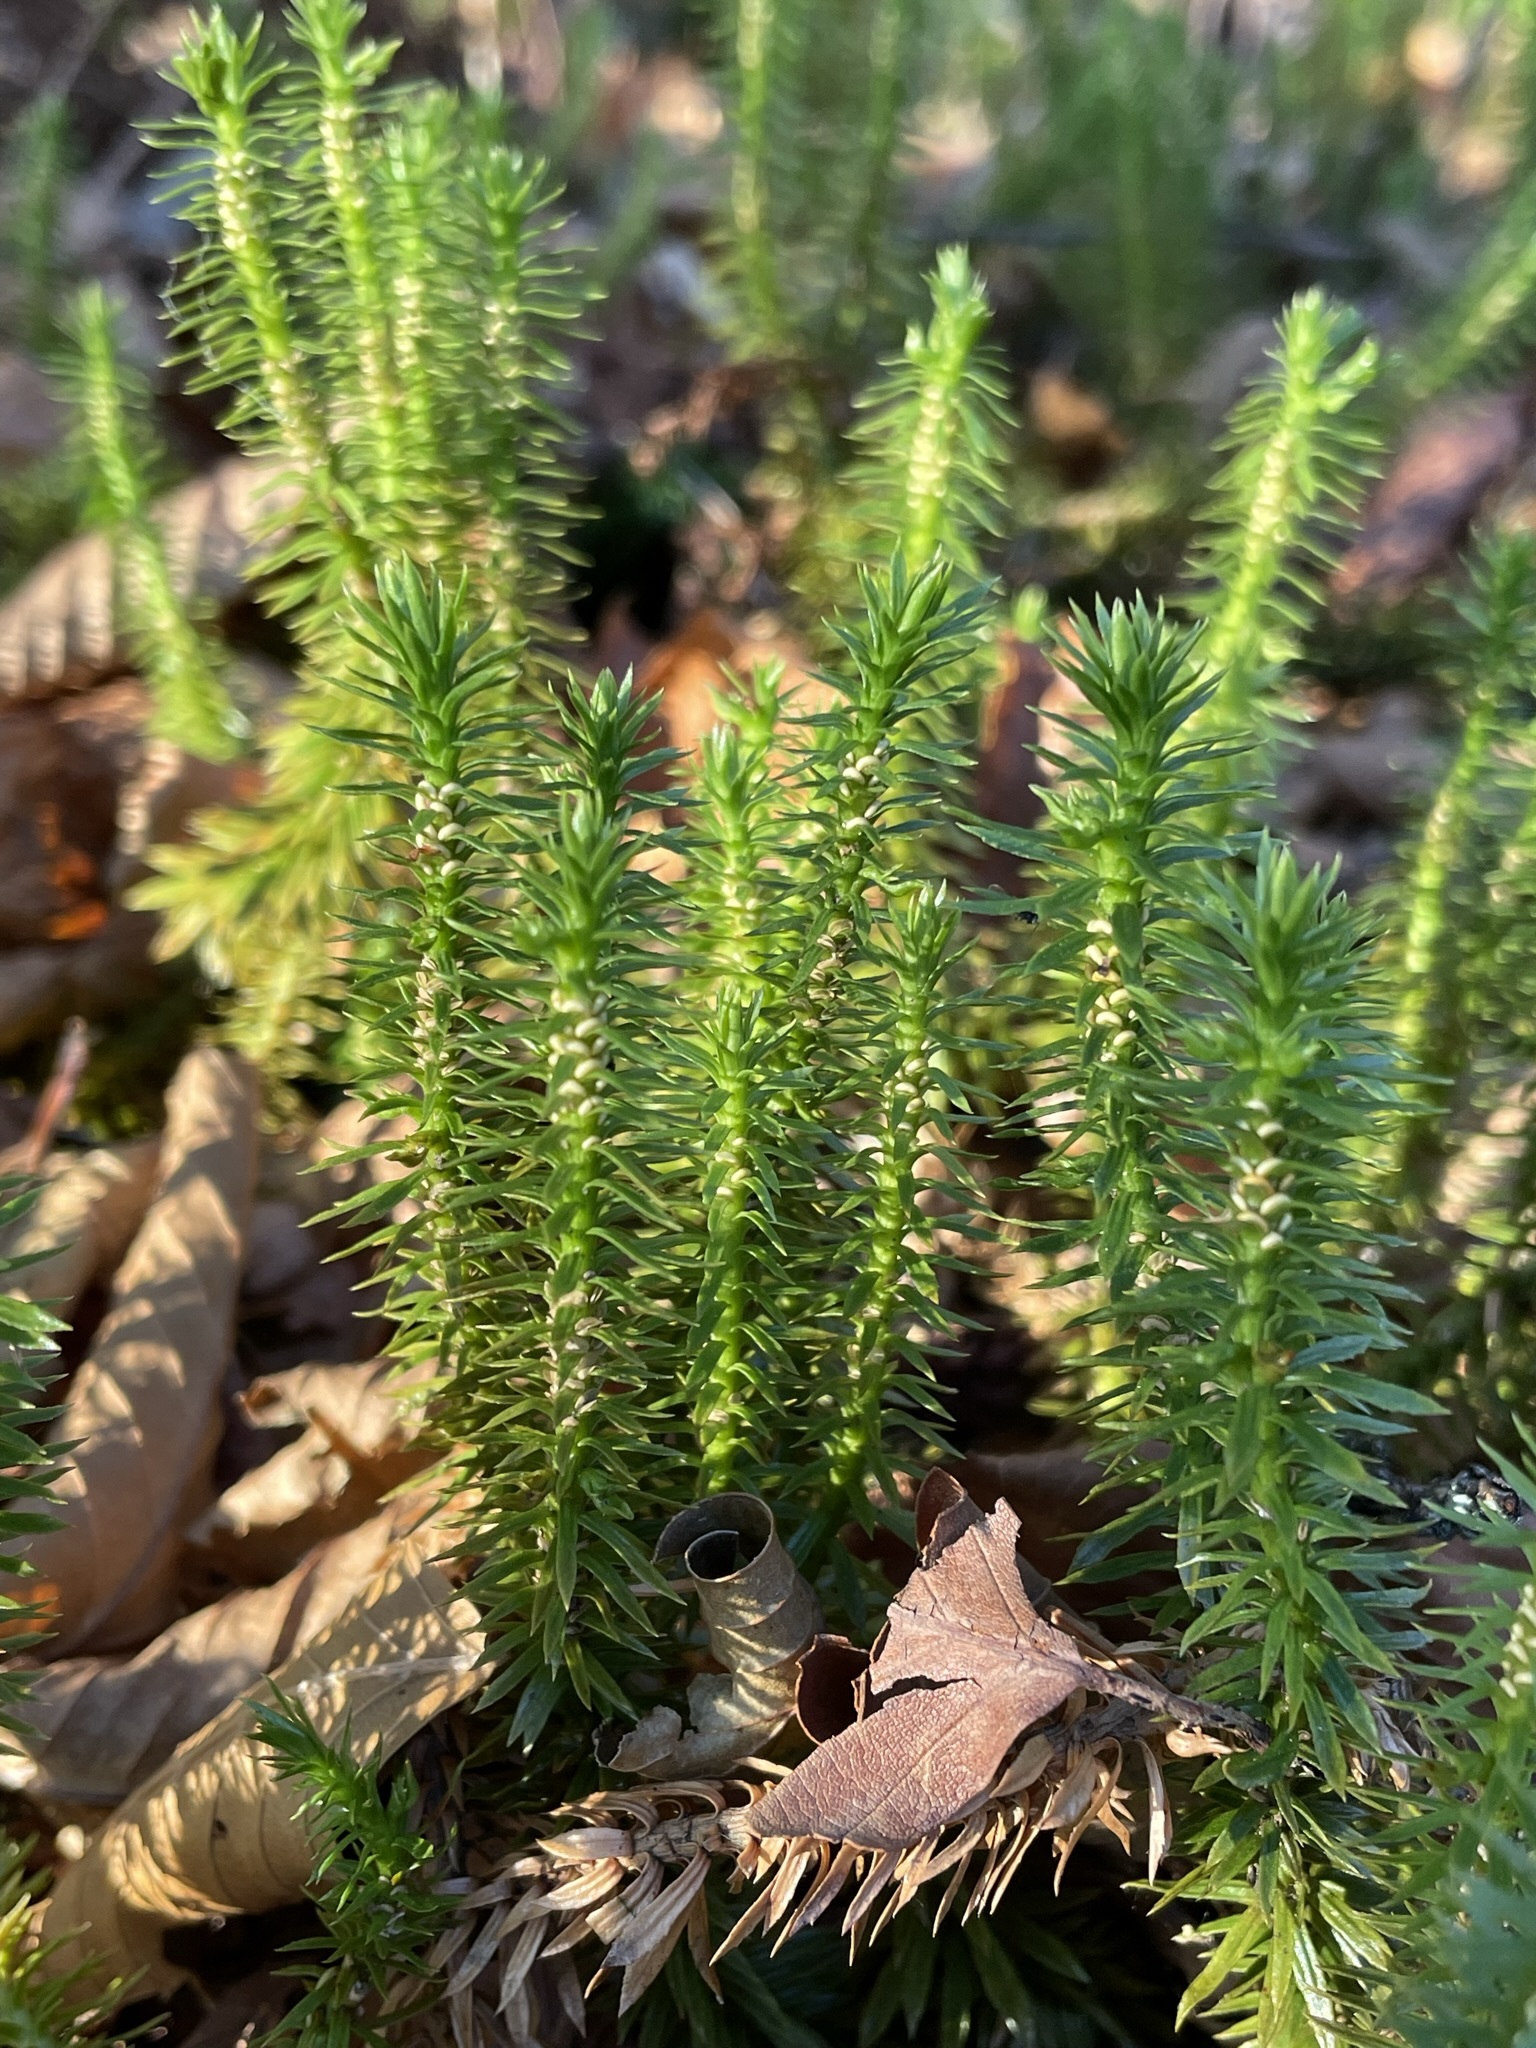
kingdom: Plantae
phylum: Tracheophyta
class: Lycopodiopsida
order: Lycopodiales
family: Lycopodiaceae
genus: Huperzia
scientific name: Huperzia lucidula
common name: Shining clubmoss
